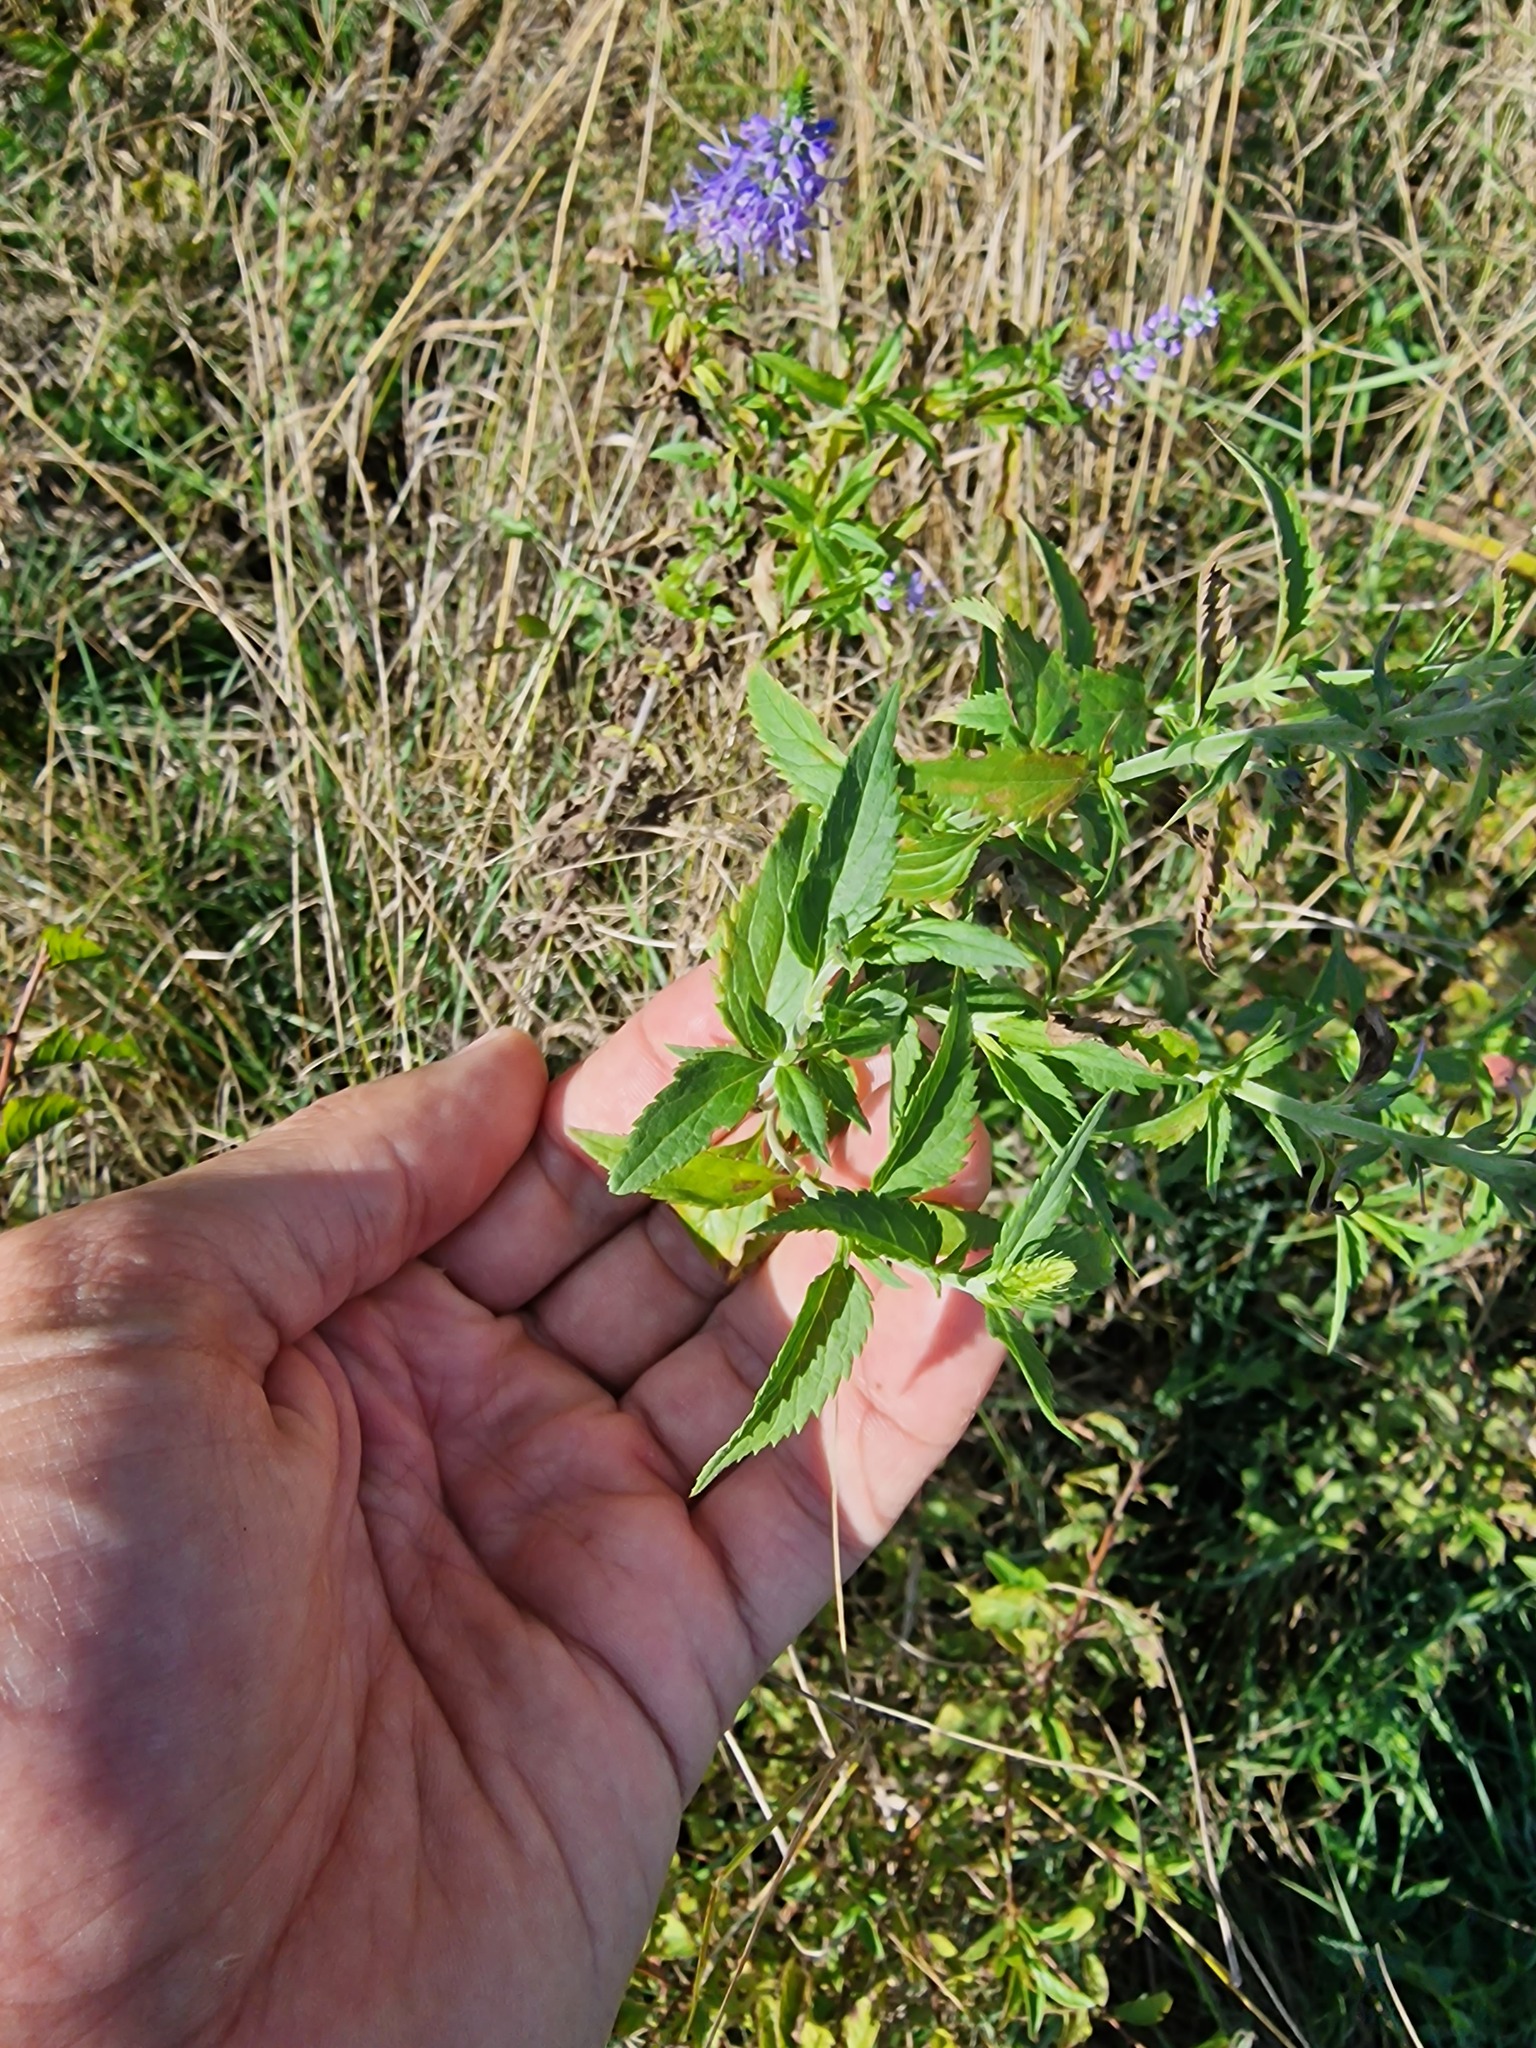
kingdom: Plantae
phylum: Tracheophyta
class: Magnoliopsida
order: Lamiales
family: Plantaginaceae
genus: Veronica
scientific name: Veronica barrelieri
